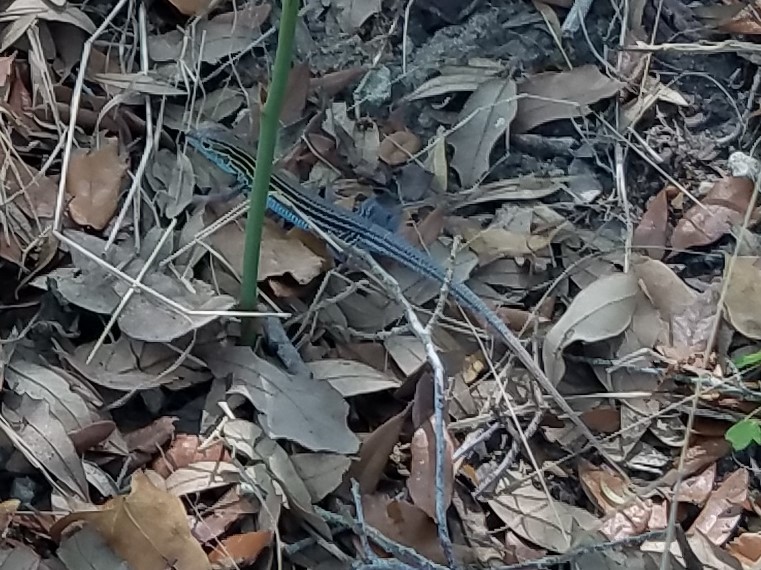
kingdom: Animalia
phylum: Chordata
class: Squamata
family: Teiidae
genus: Aspidoscelis
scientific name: Aspidoscelis sexlineatus
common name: Six-lined racerunner
